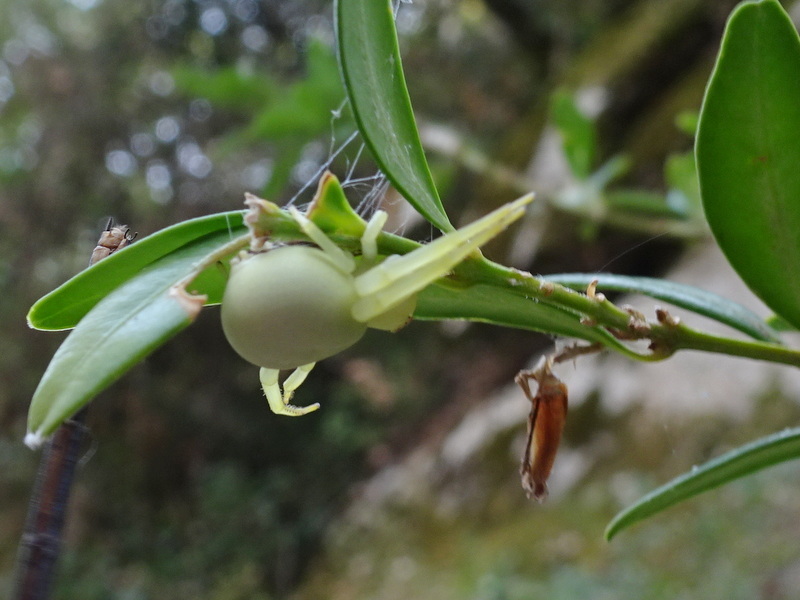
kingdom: Animalia
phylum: Arthropoda
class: Arachnida
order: Araneae
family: Thomisidae
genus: Misumena
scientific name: Misumena vatia
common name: Goldenrod crab spider
